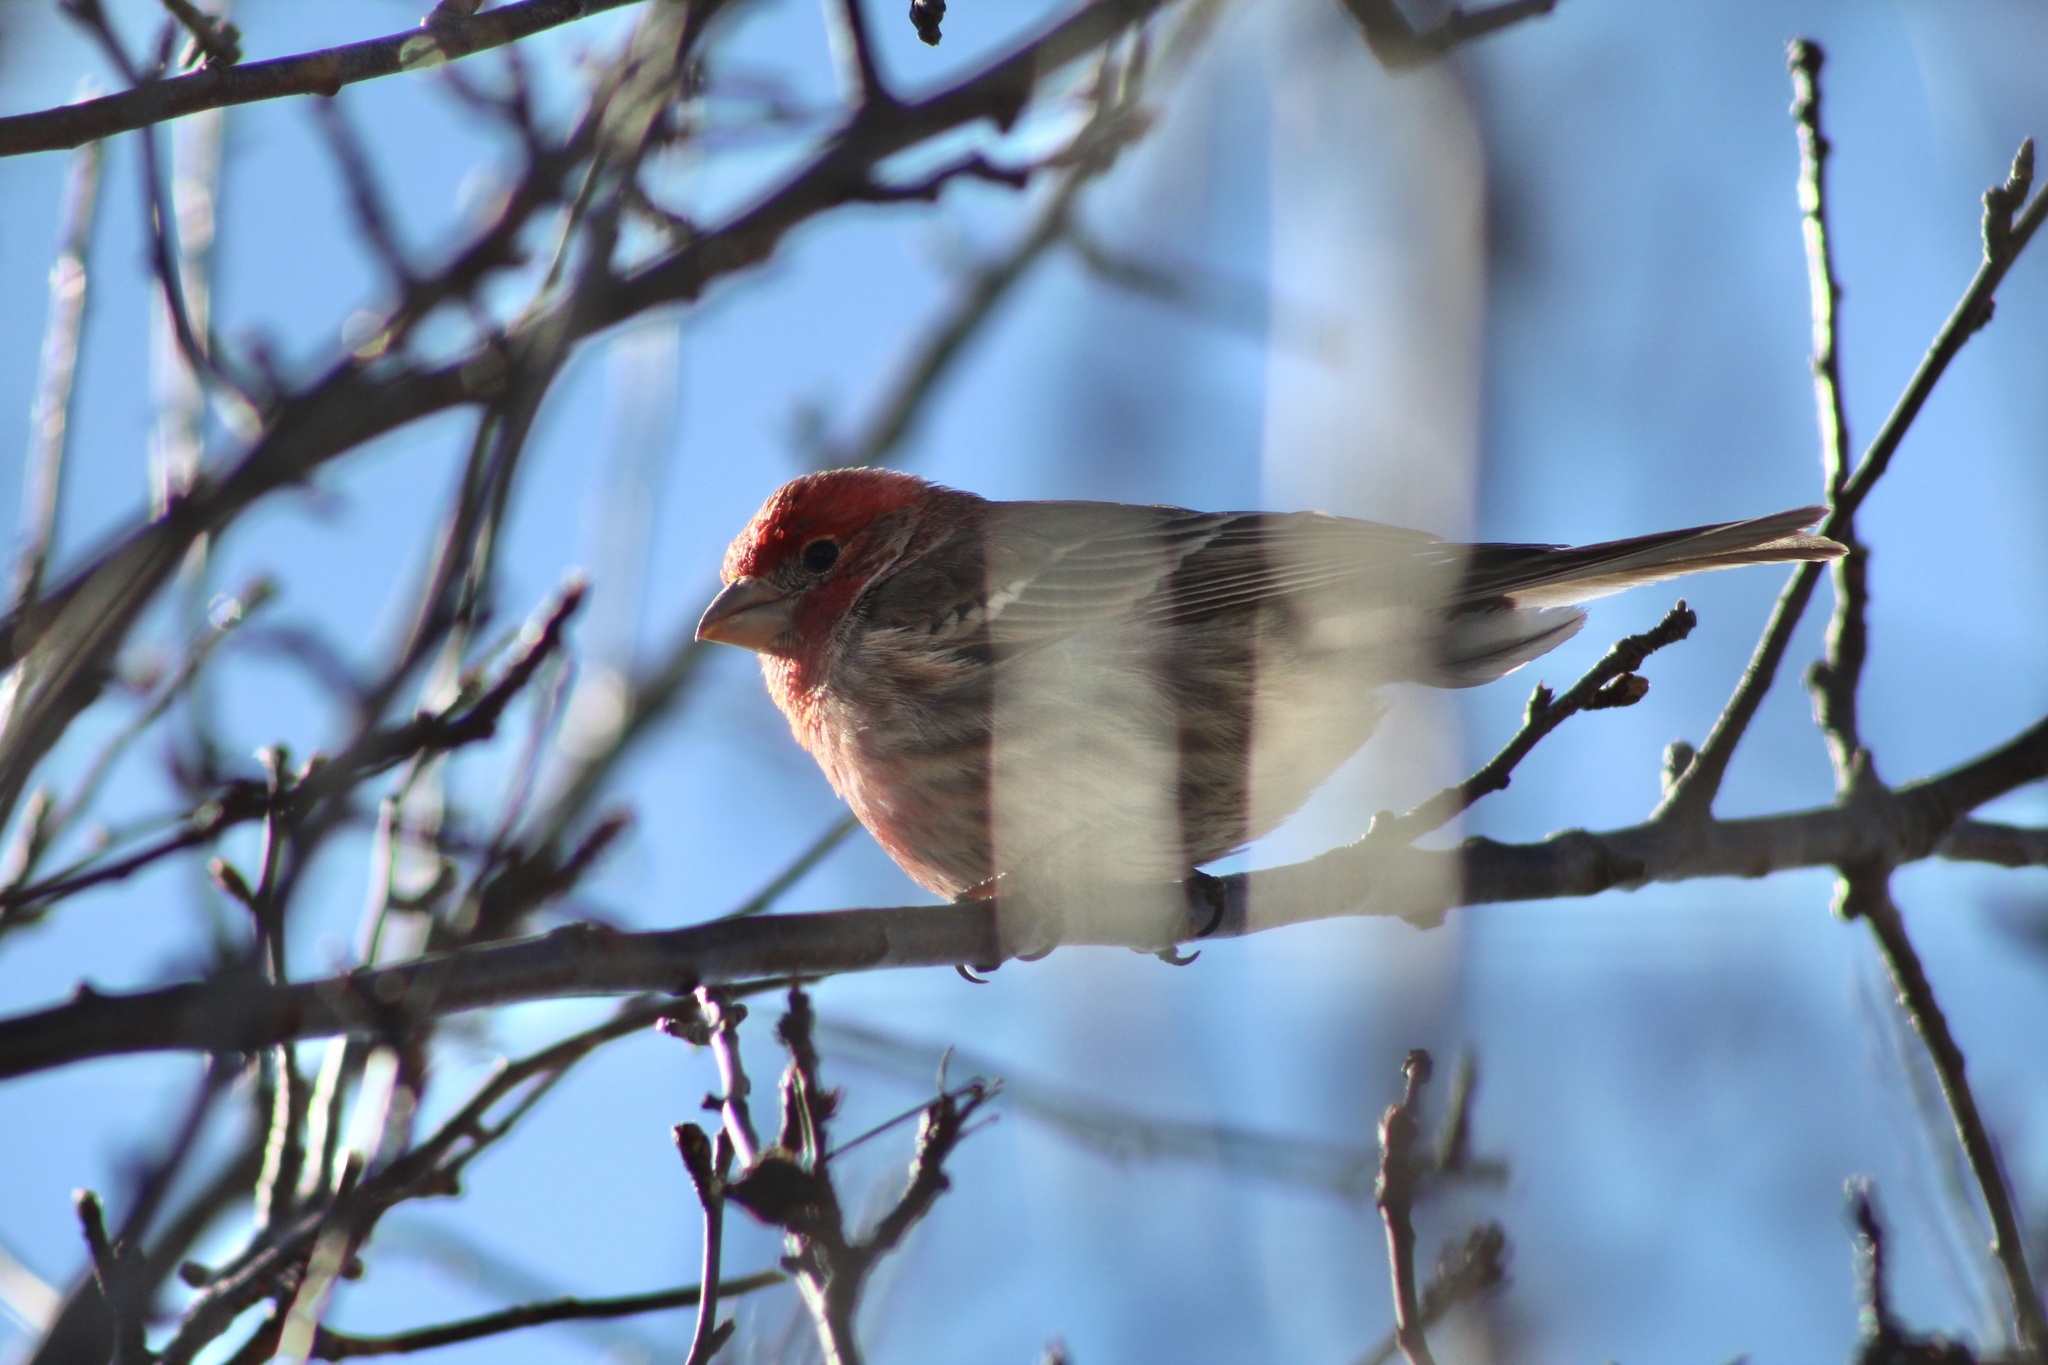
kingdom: Animalia
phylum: Chordata
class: Aves
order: Passeriformes
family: Fringillidae
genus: Haemorhous
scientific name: Haemorhous mexicanus
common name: House finch
